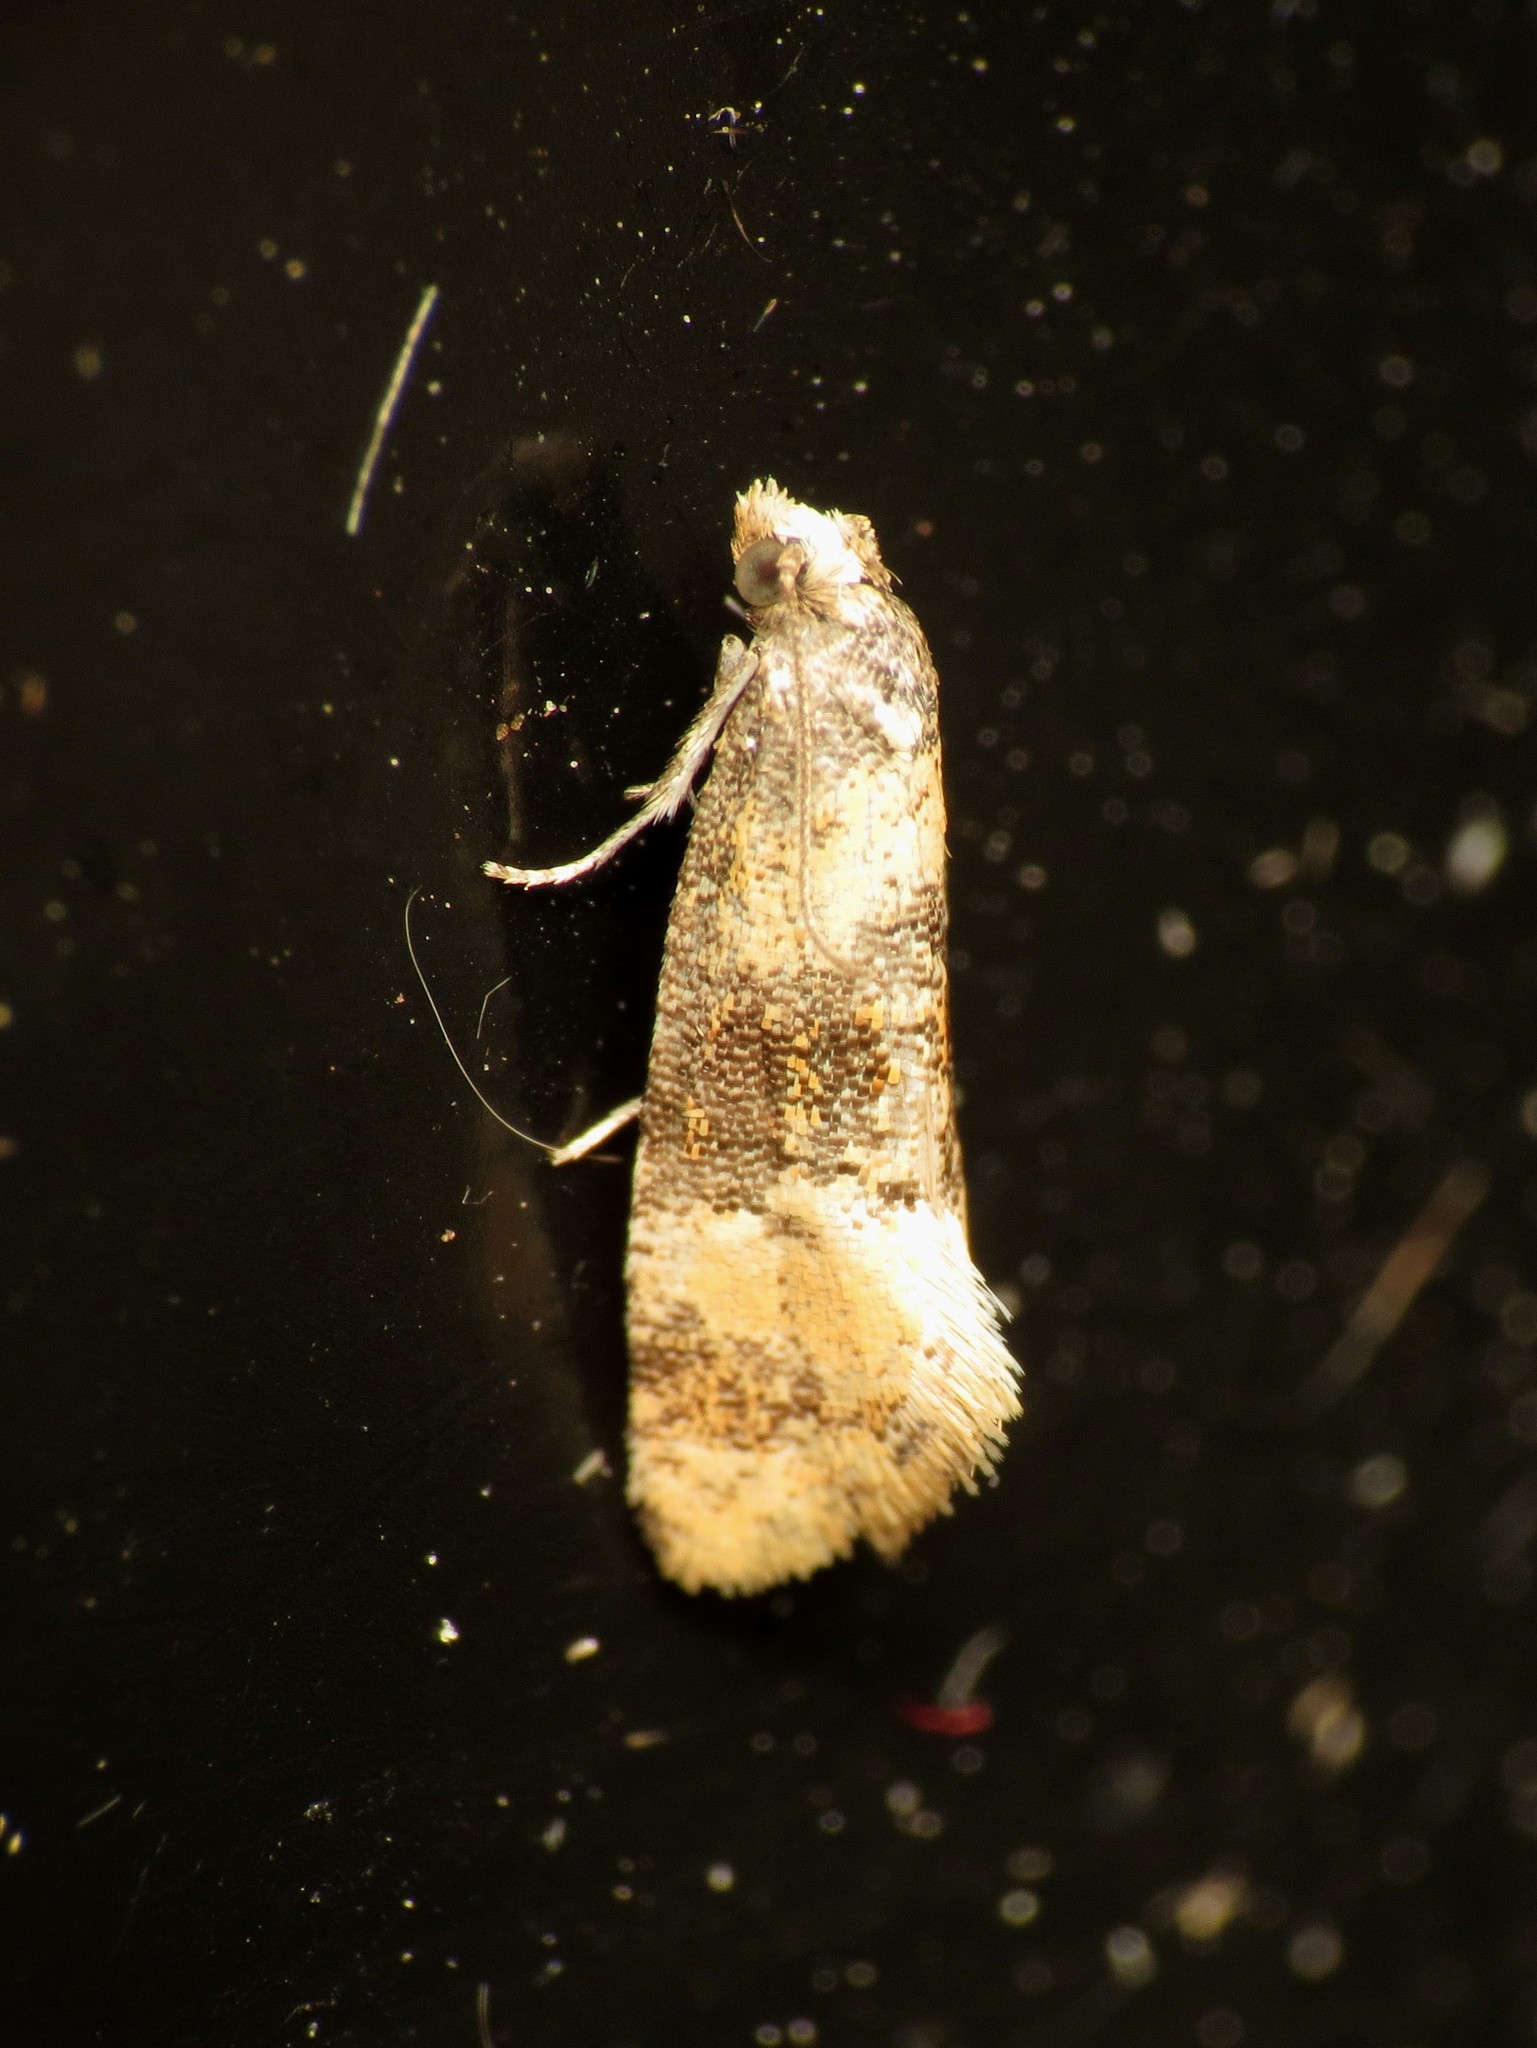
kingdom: Animalia
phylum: Arthropoda
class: Insecta
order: Lepidoptera
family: Tortricidae
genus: Thyraylia
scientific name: Thyraylia nana
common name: Birch conch
